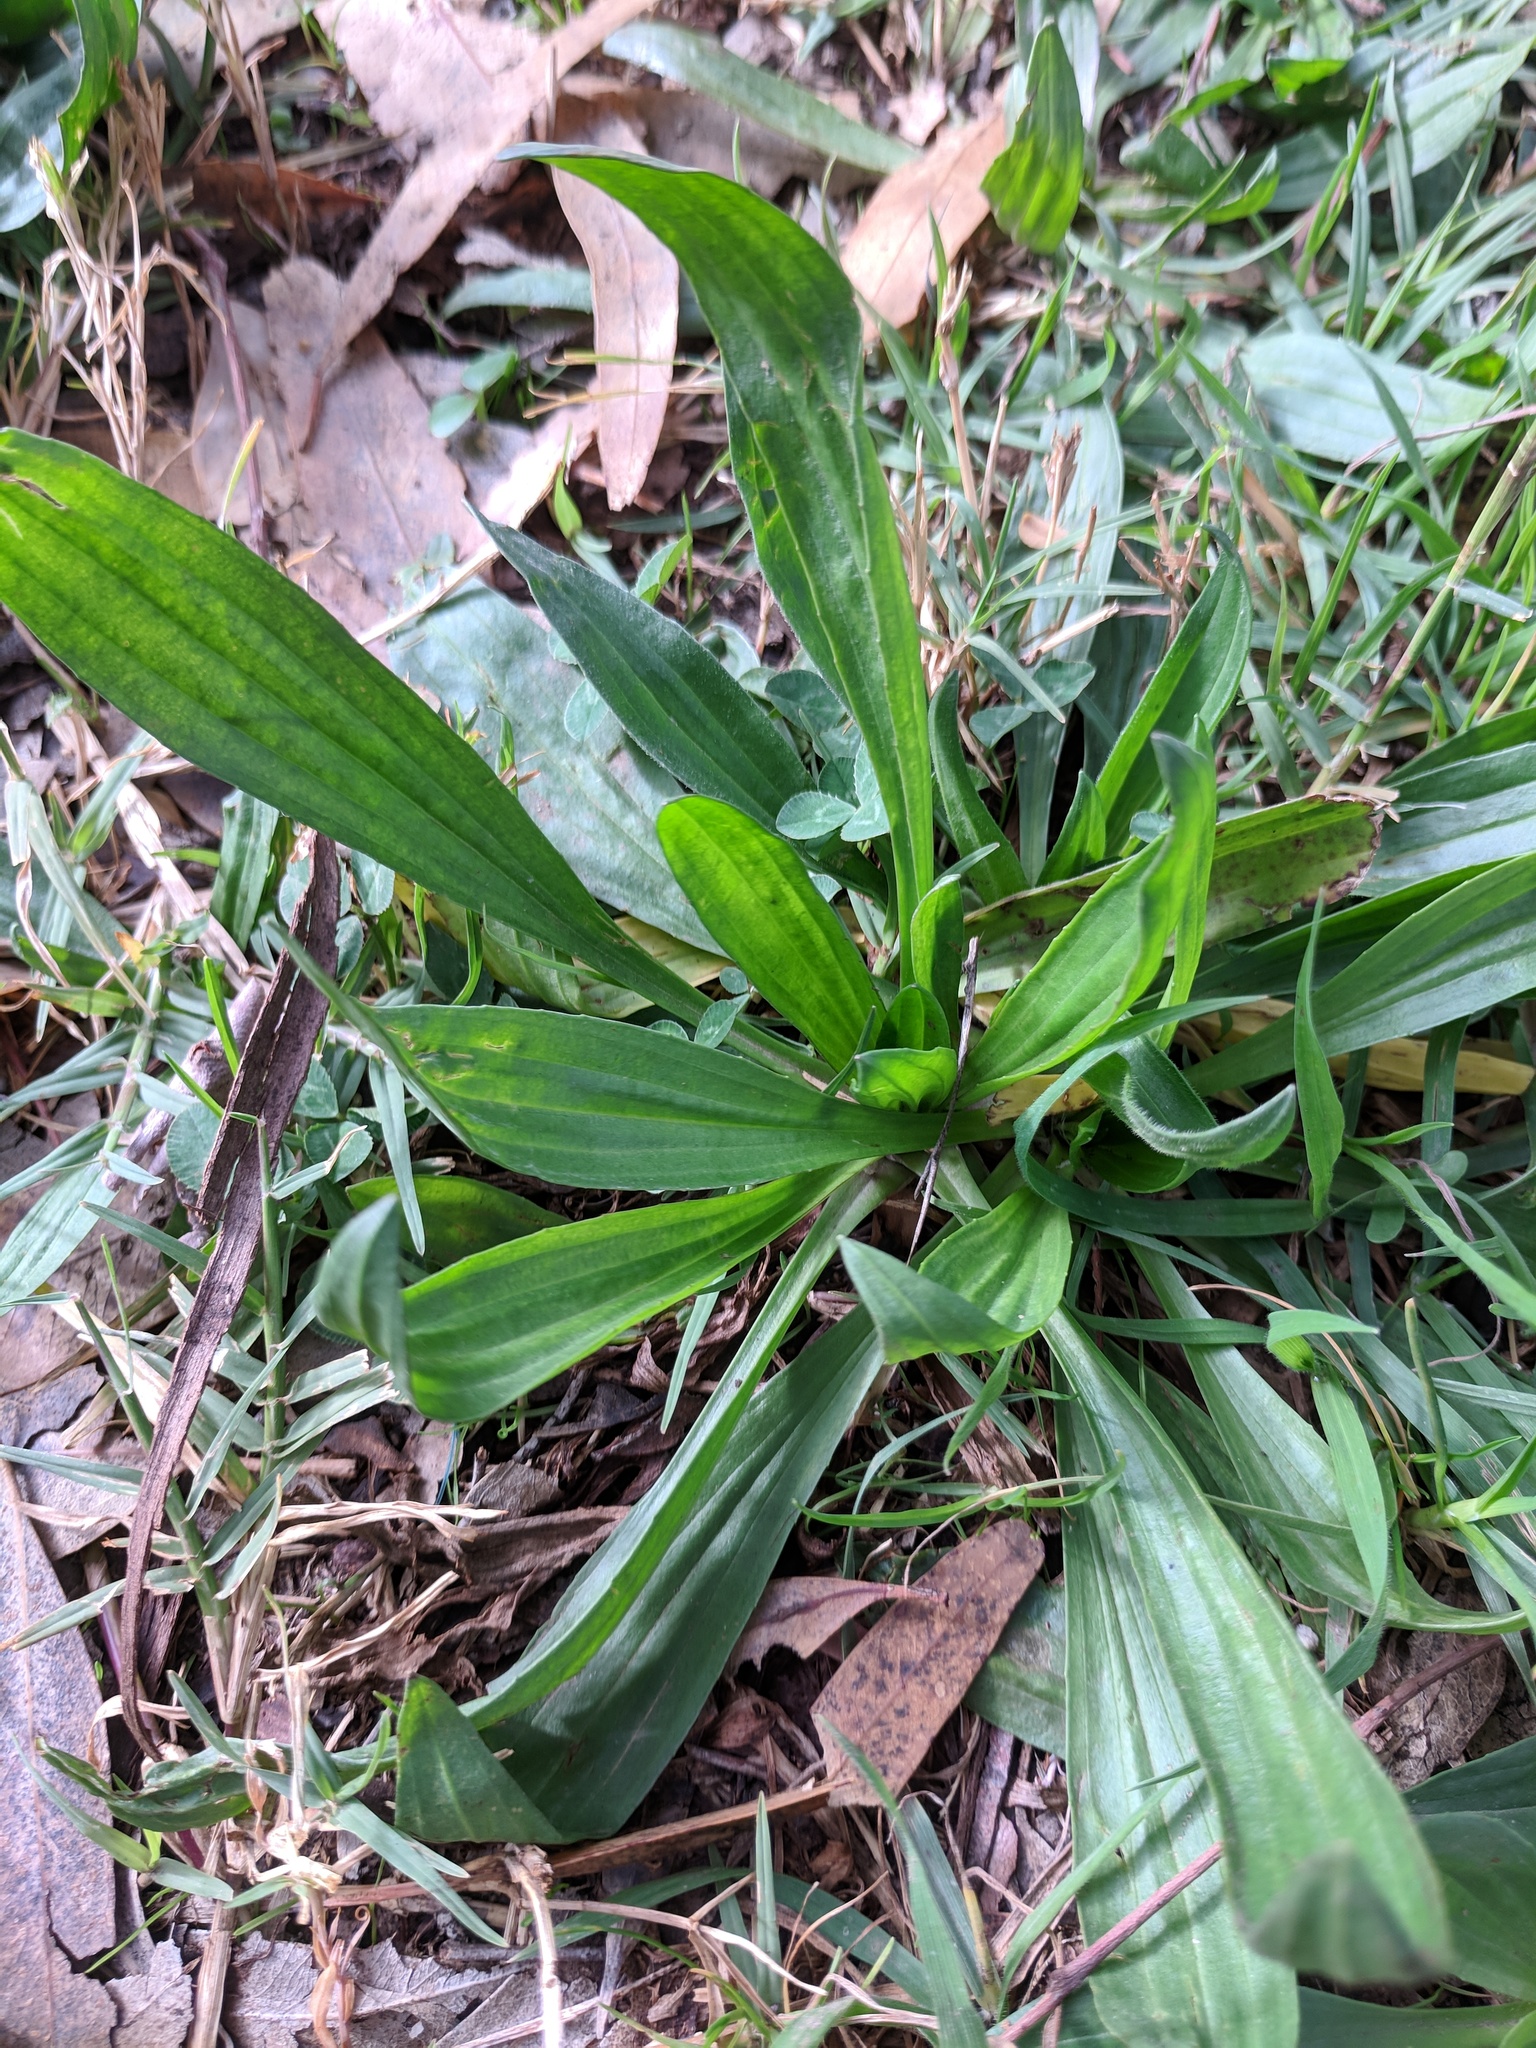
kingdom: Plantae
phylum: Tracheophyta
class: Magnoliopsida
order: Lamiales
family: Plantaginaceae
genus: Plantago
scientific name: Plantago lanceolata
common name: Ribwort plantain
